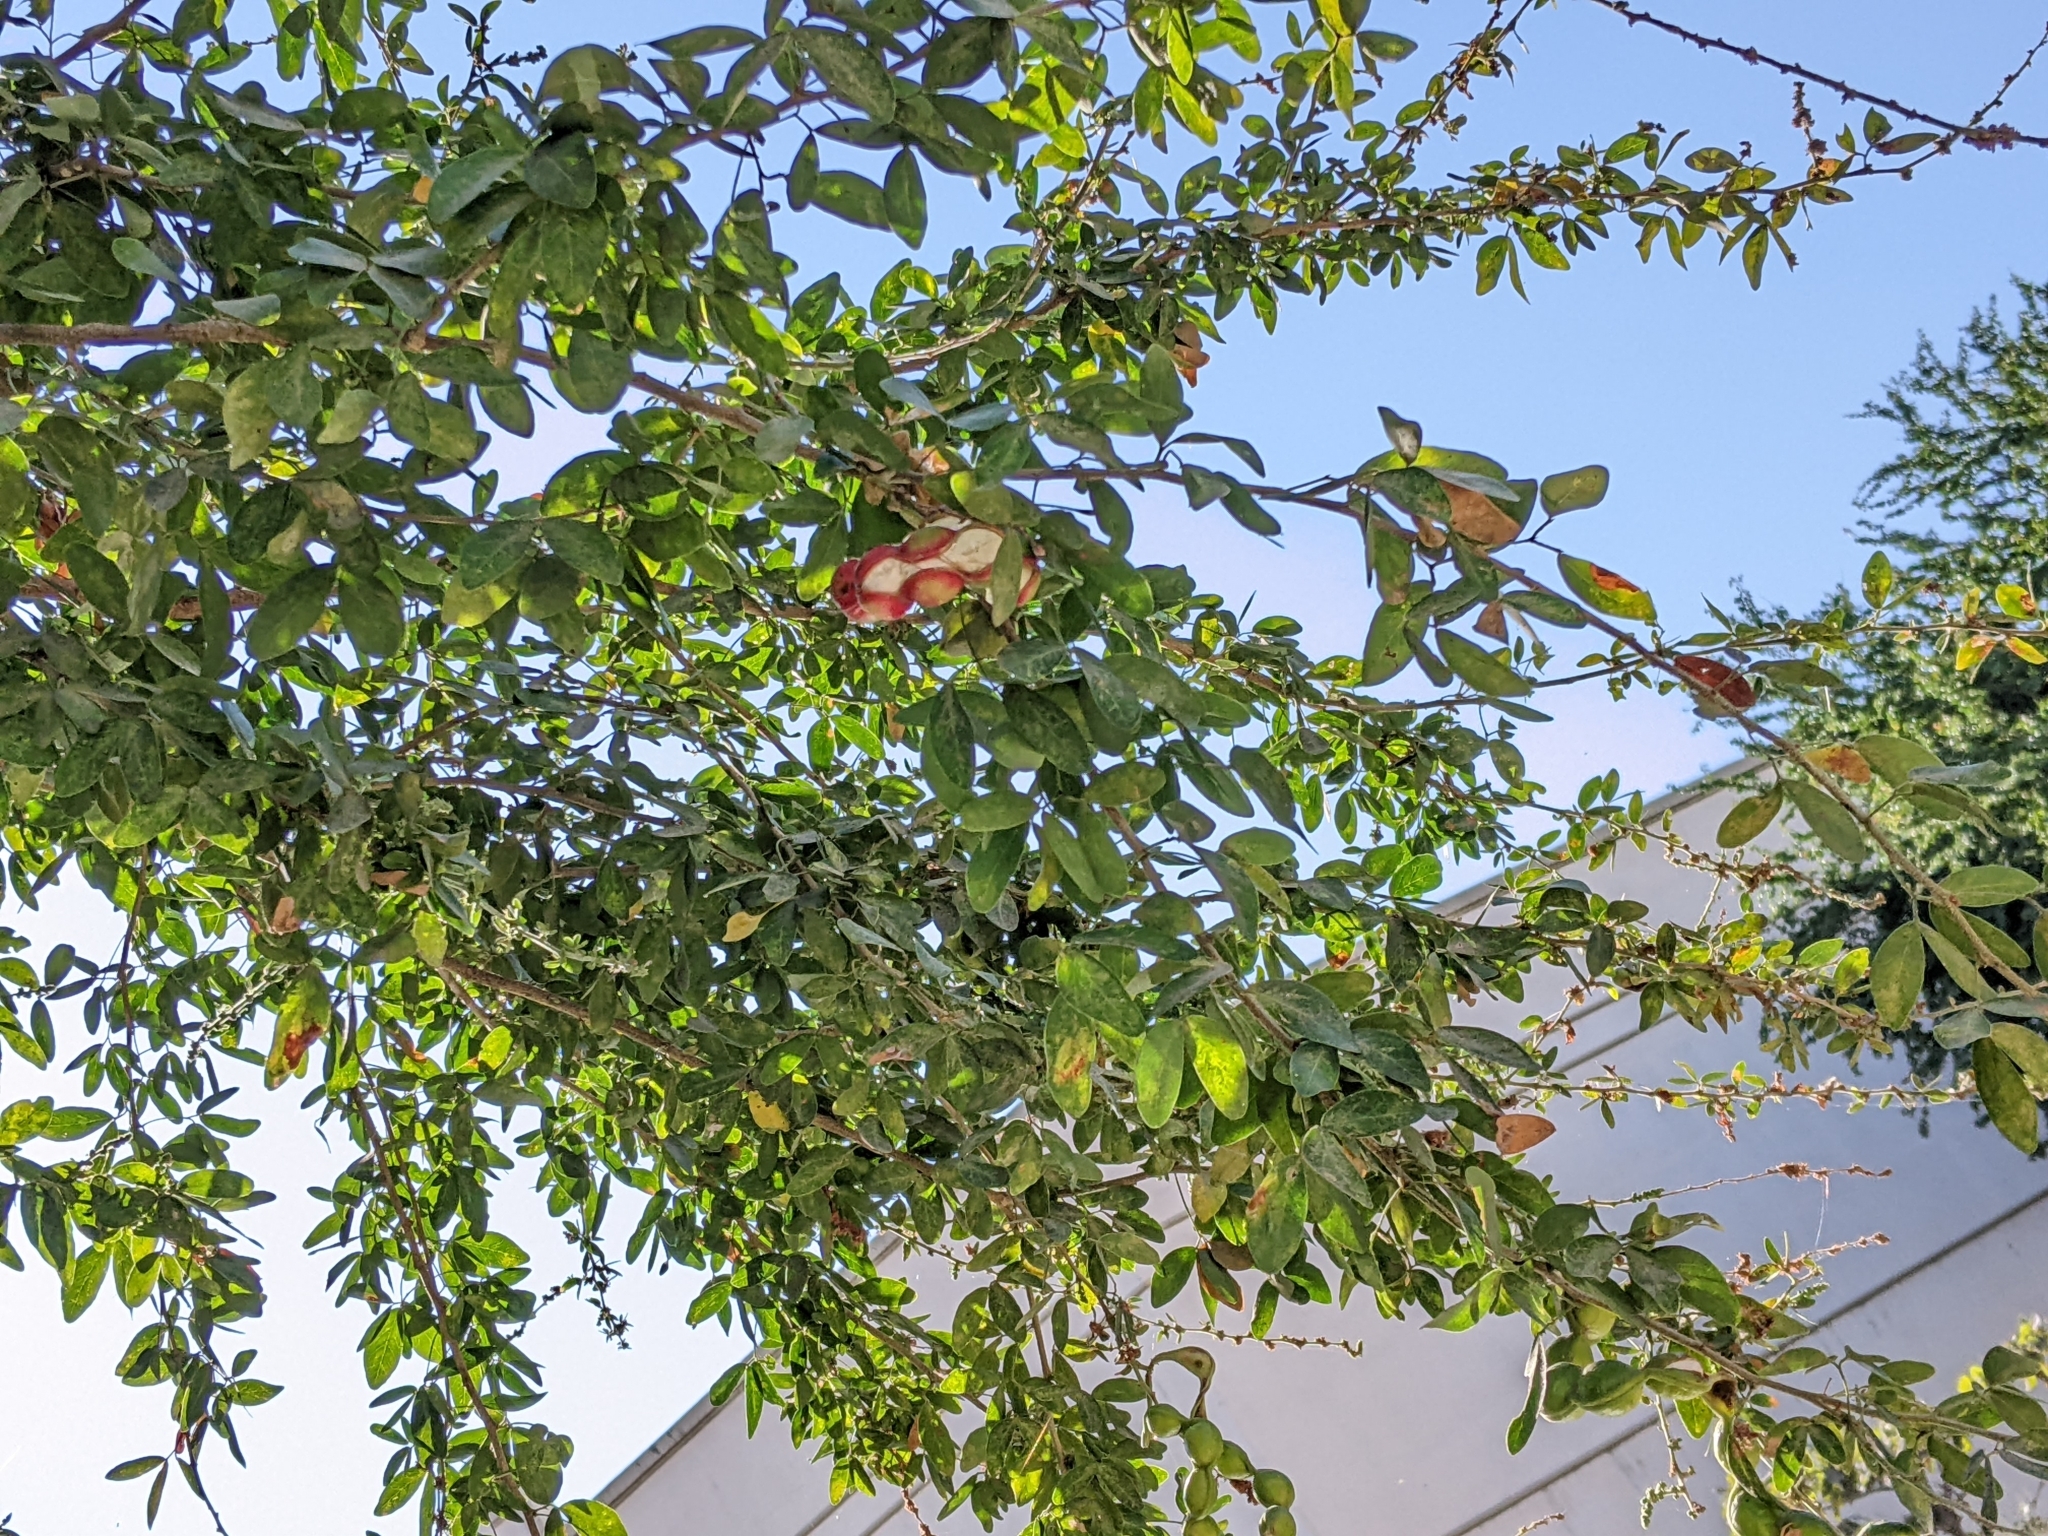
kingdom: Plantae
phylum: Tracheophyta
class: Magnoliopsida
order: Fabales
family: Fabaceae
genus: Pithecellobium
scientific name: Pithecellobium dulce
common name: Monkeypod
